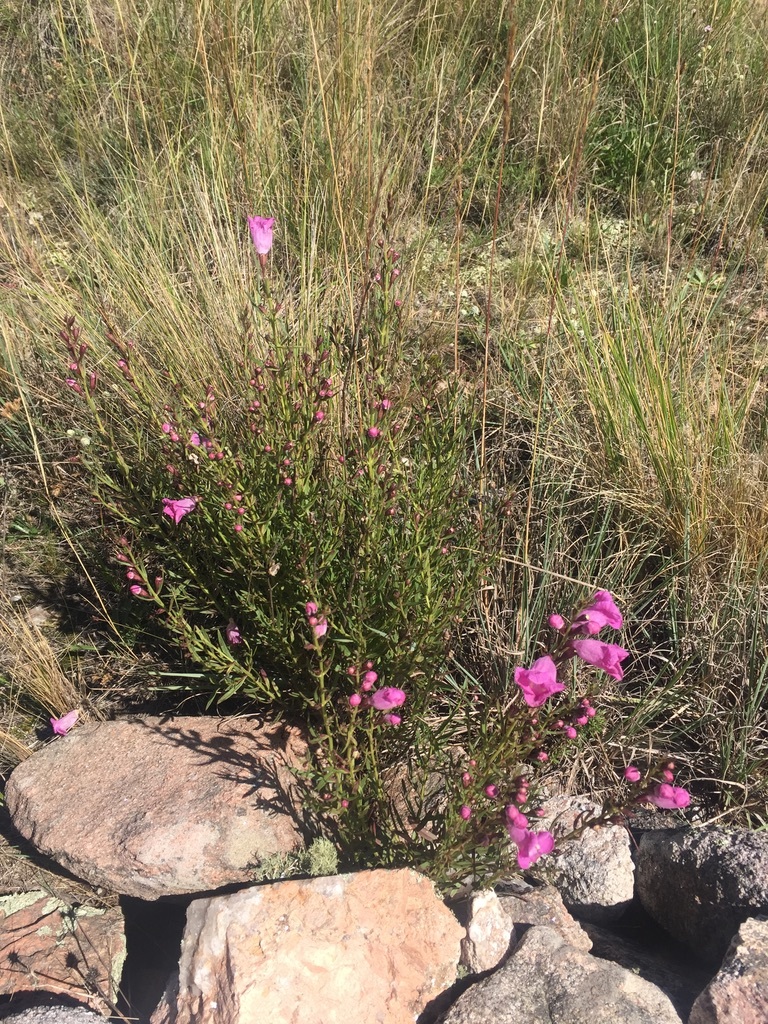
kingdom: Plantae
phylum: Tracheophyta
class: Magnoliopsida
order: Lamiales
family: Orobanchaceae
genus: Agalinis
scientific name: Agalinis genistifolia
